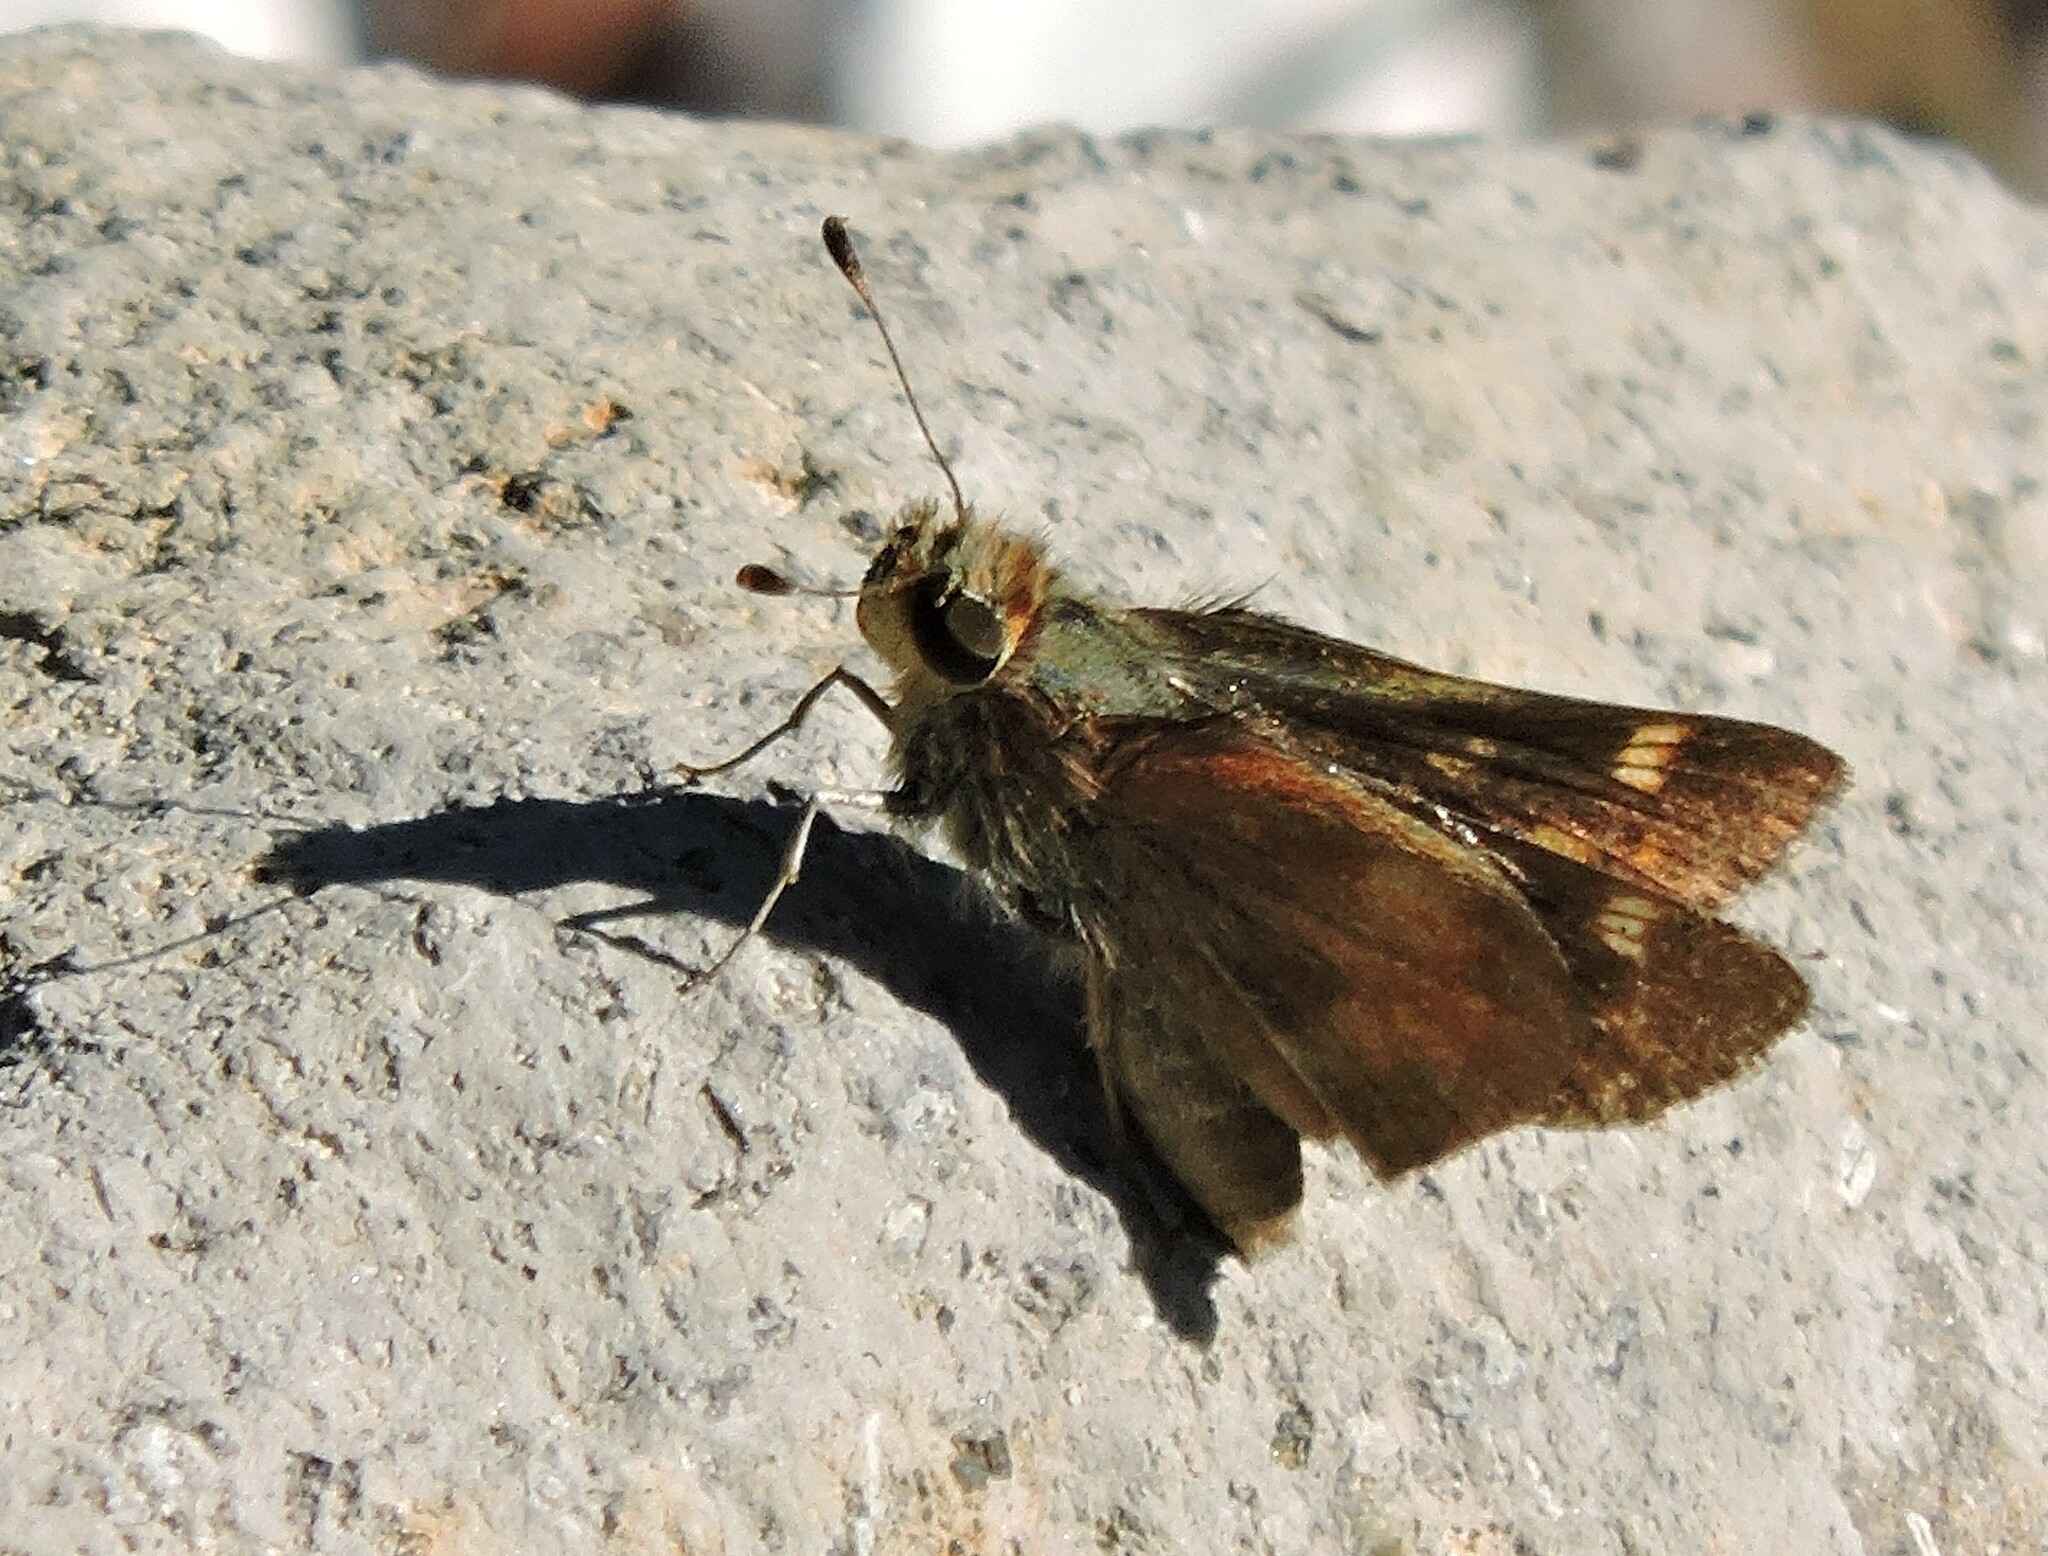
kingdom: Animalia
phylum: Arthropoda
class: Insecta
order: Lepidoptera
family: Hesperiidae
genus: Lon
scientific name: Lon melane
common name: Umber skipper
